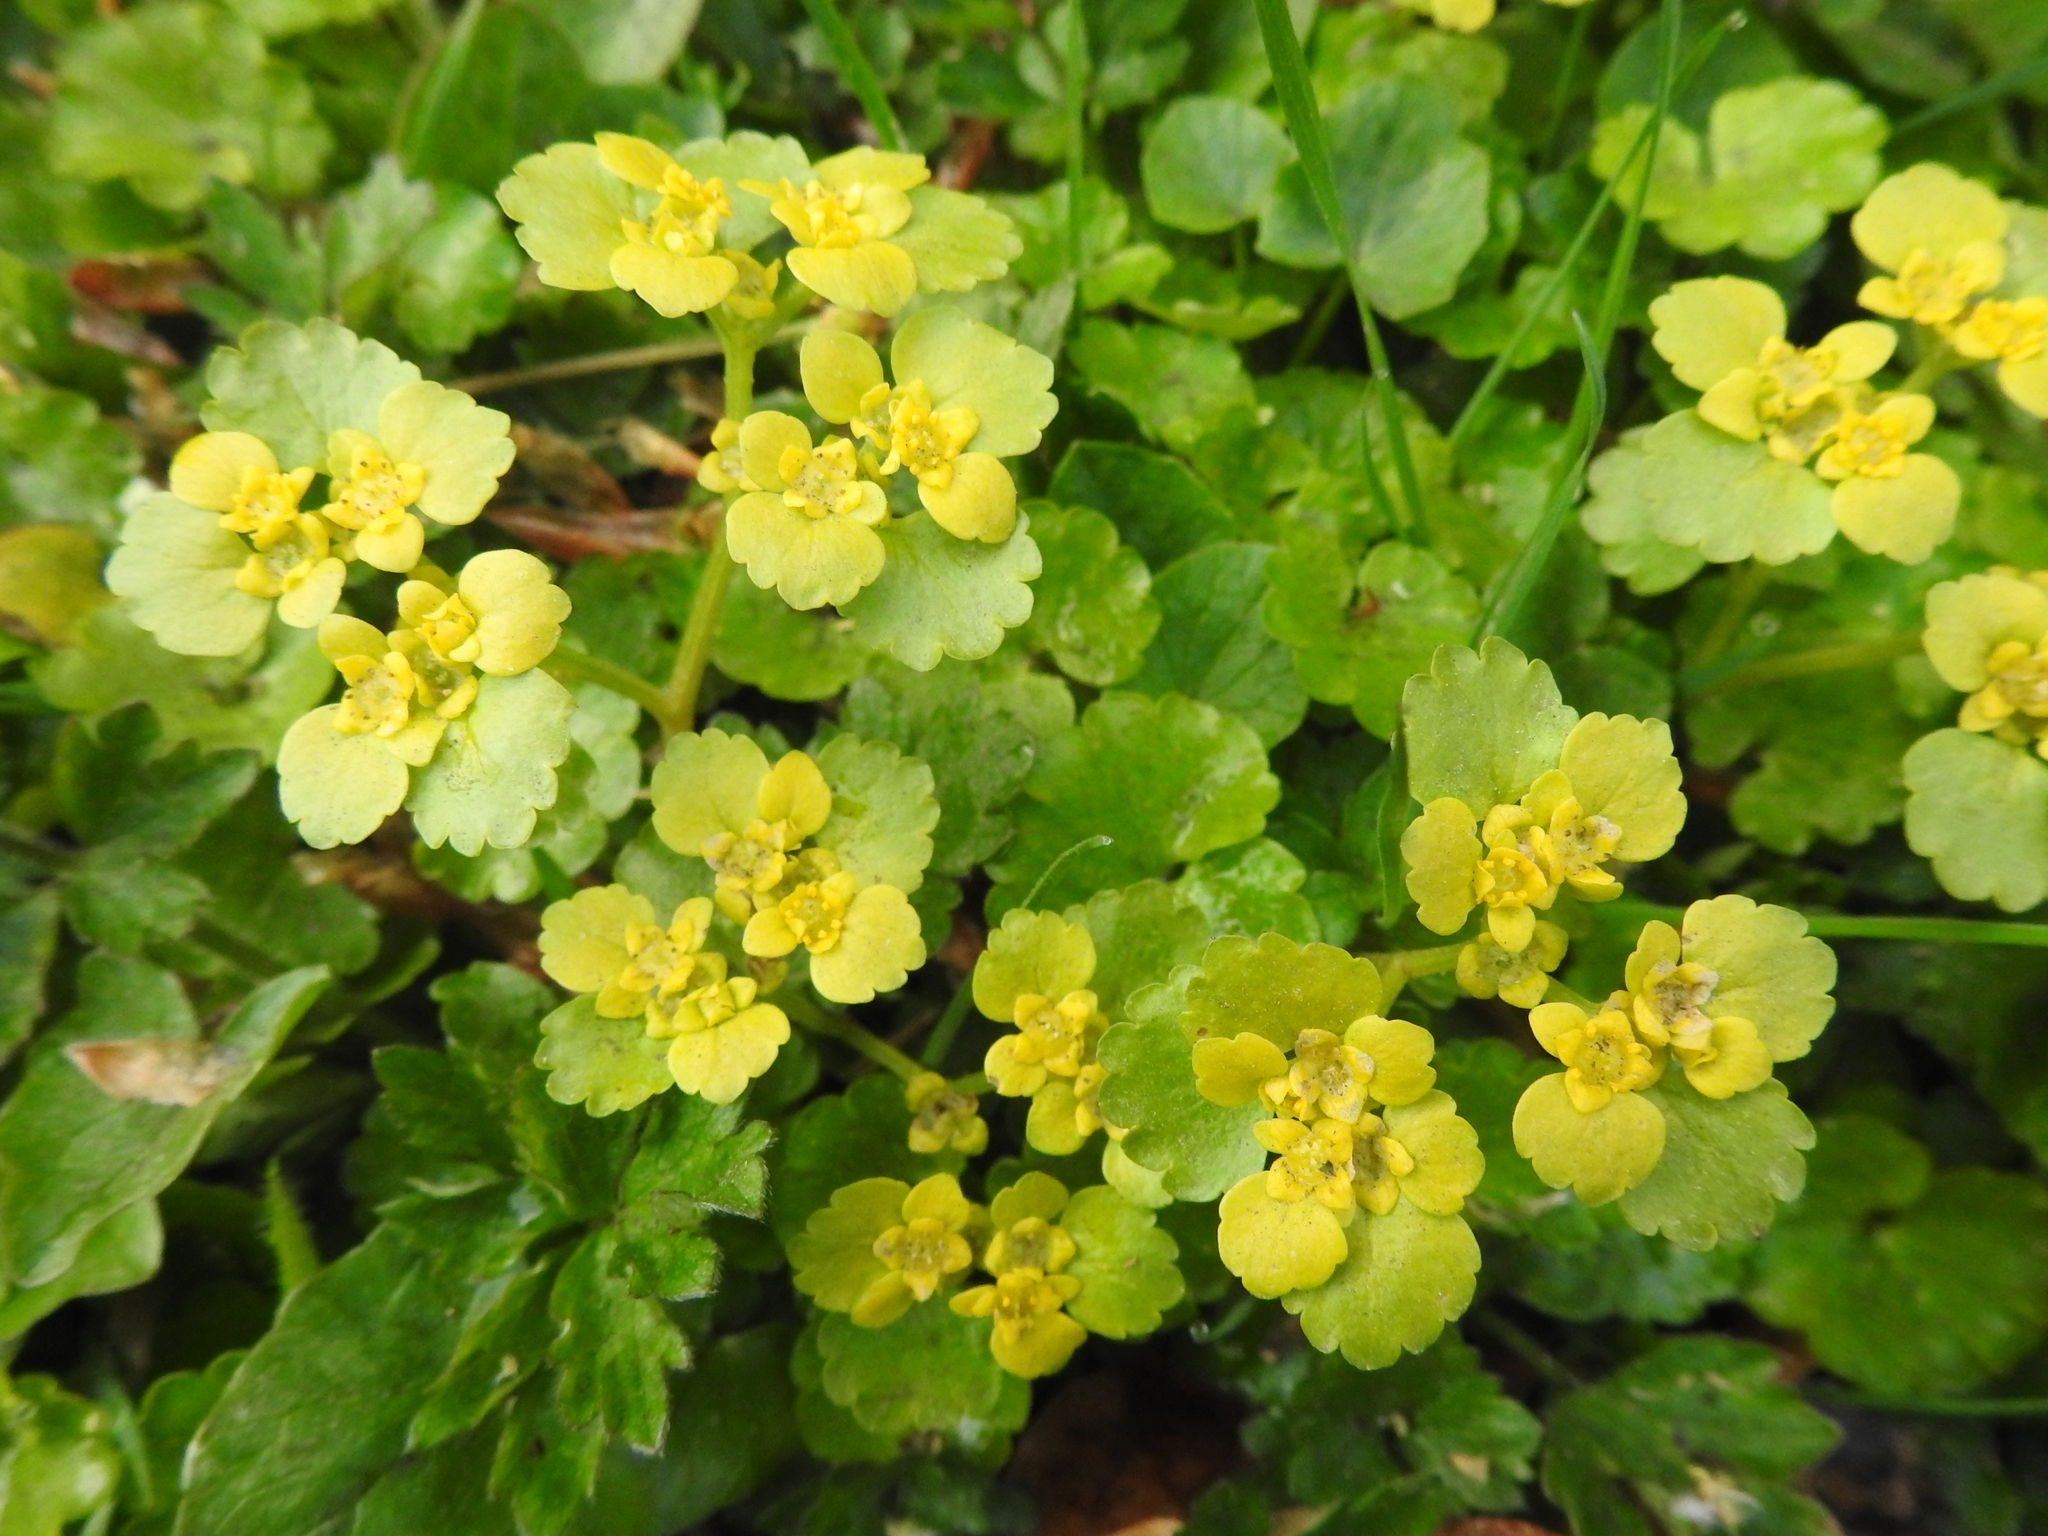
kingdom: Plantae
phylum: Tracheophyta
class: Magnoliopsida
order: Saxifragales
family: Saxifragaceae
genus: Chrysosplenium
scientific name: Chrysosplenium alternifolium
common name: Alternate-leaved golden-saxifrage
